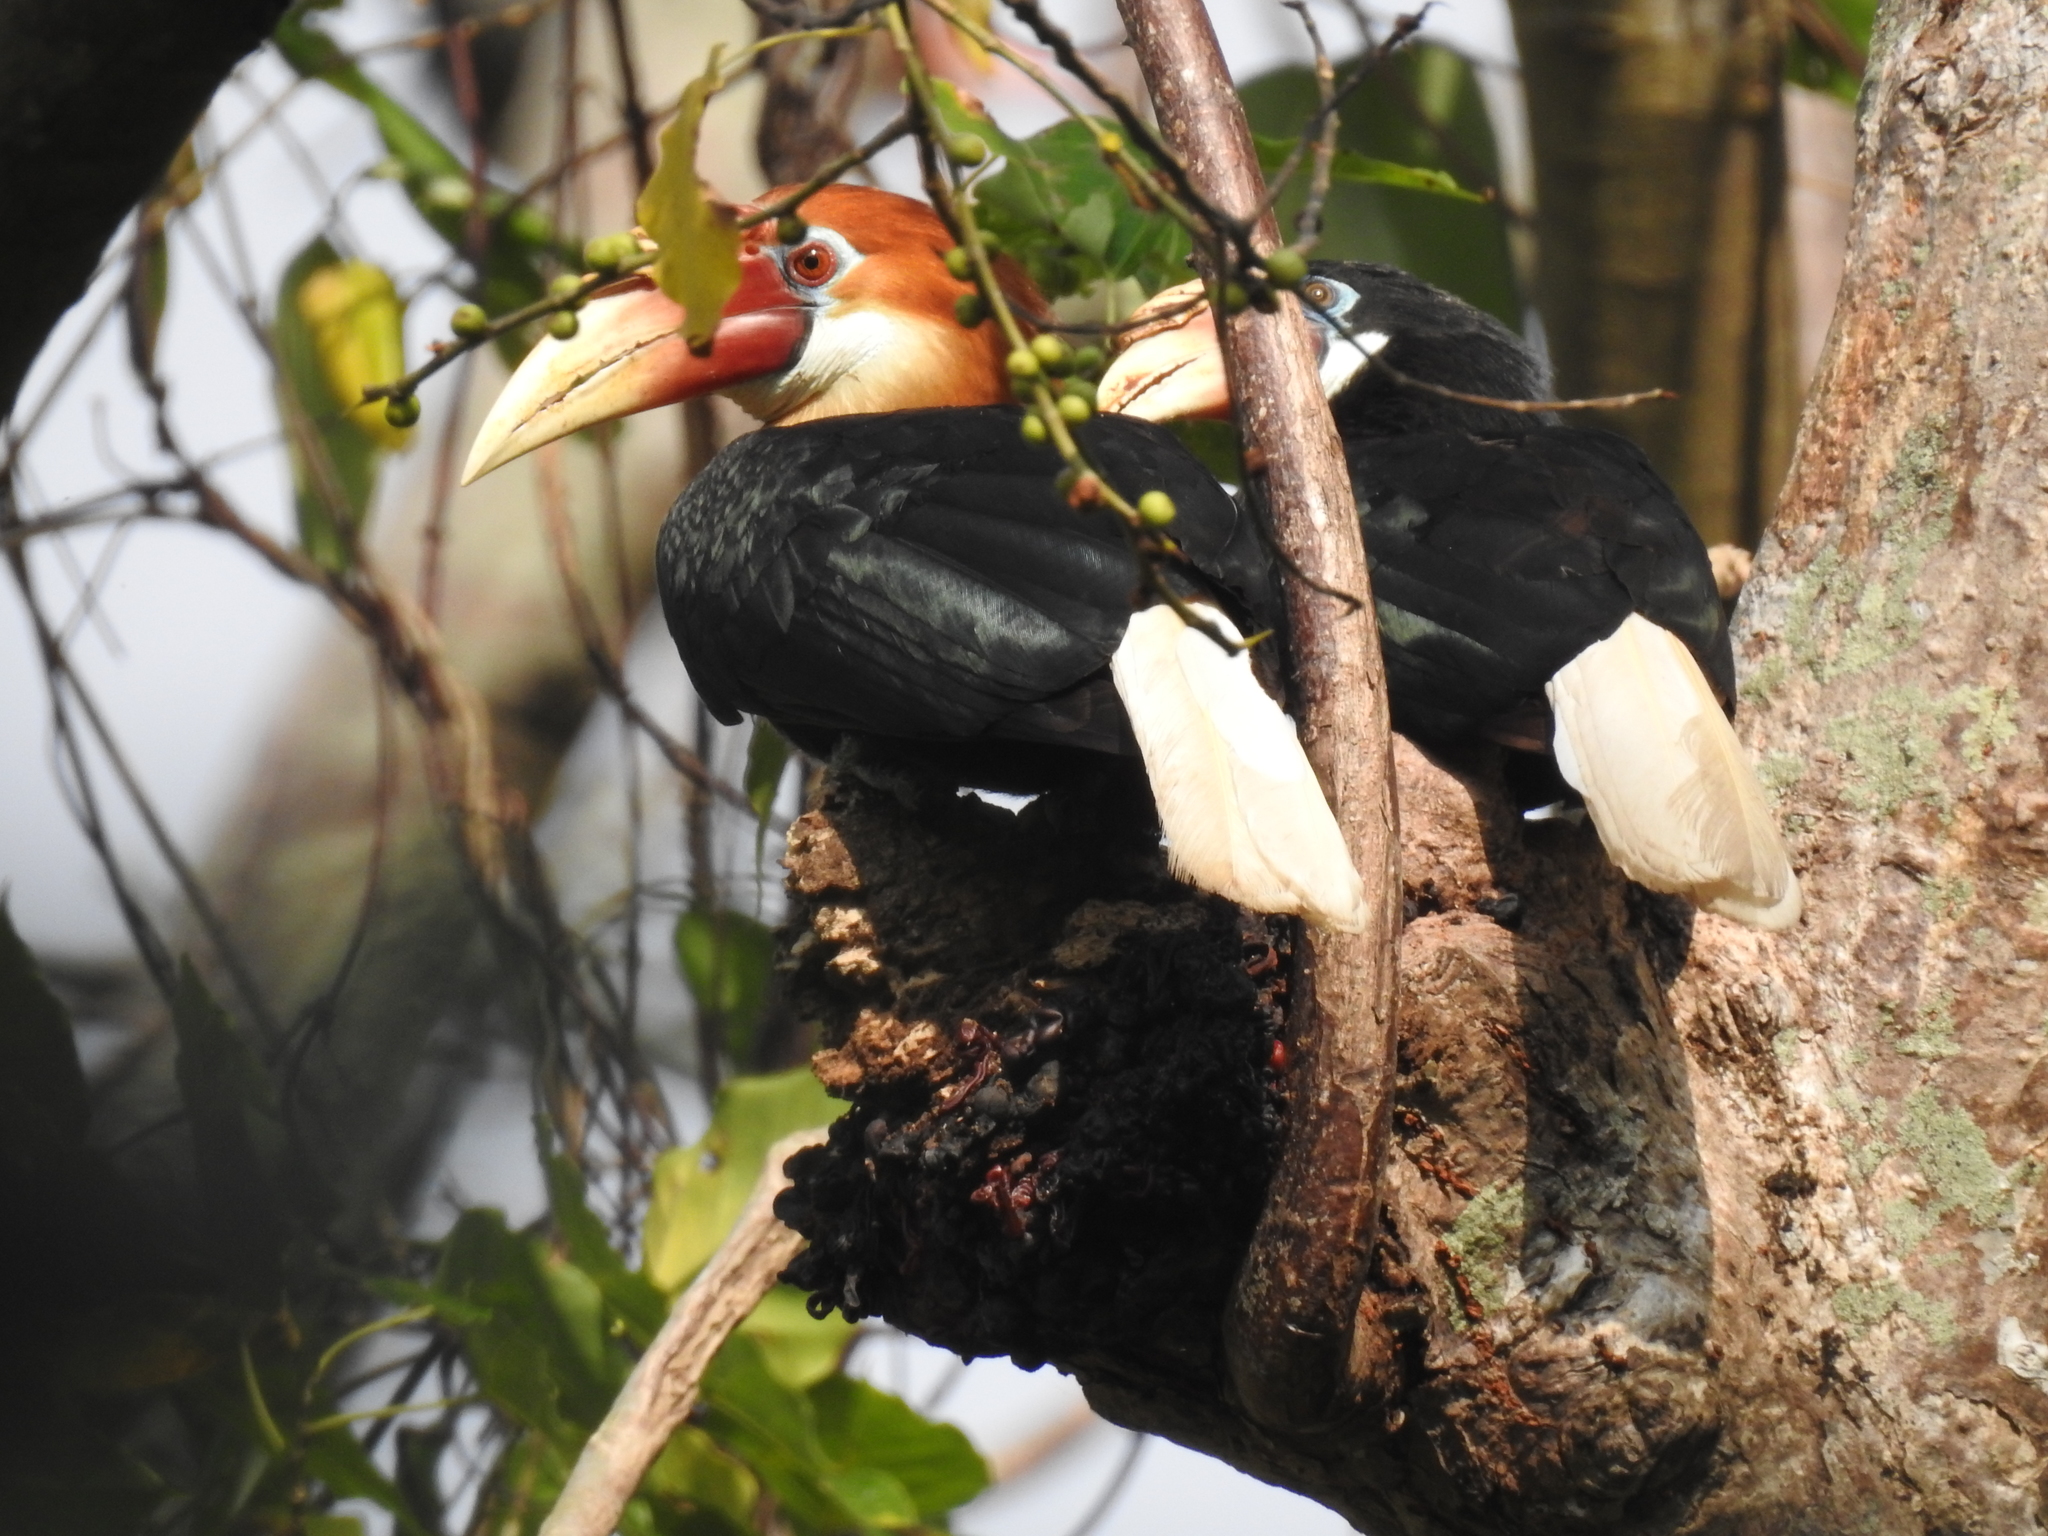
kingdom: Animalia
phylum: Chordata
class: Aves
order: Bucerotiformes
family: Bucerotidae
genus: Rhyticeros
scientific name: Rhyticeros narcondami
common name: Narcondam hornbill
